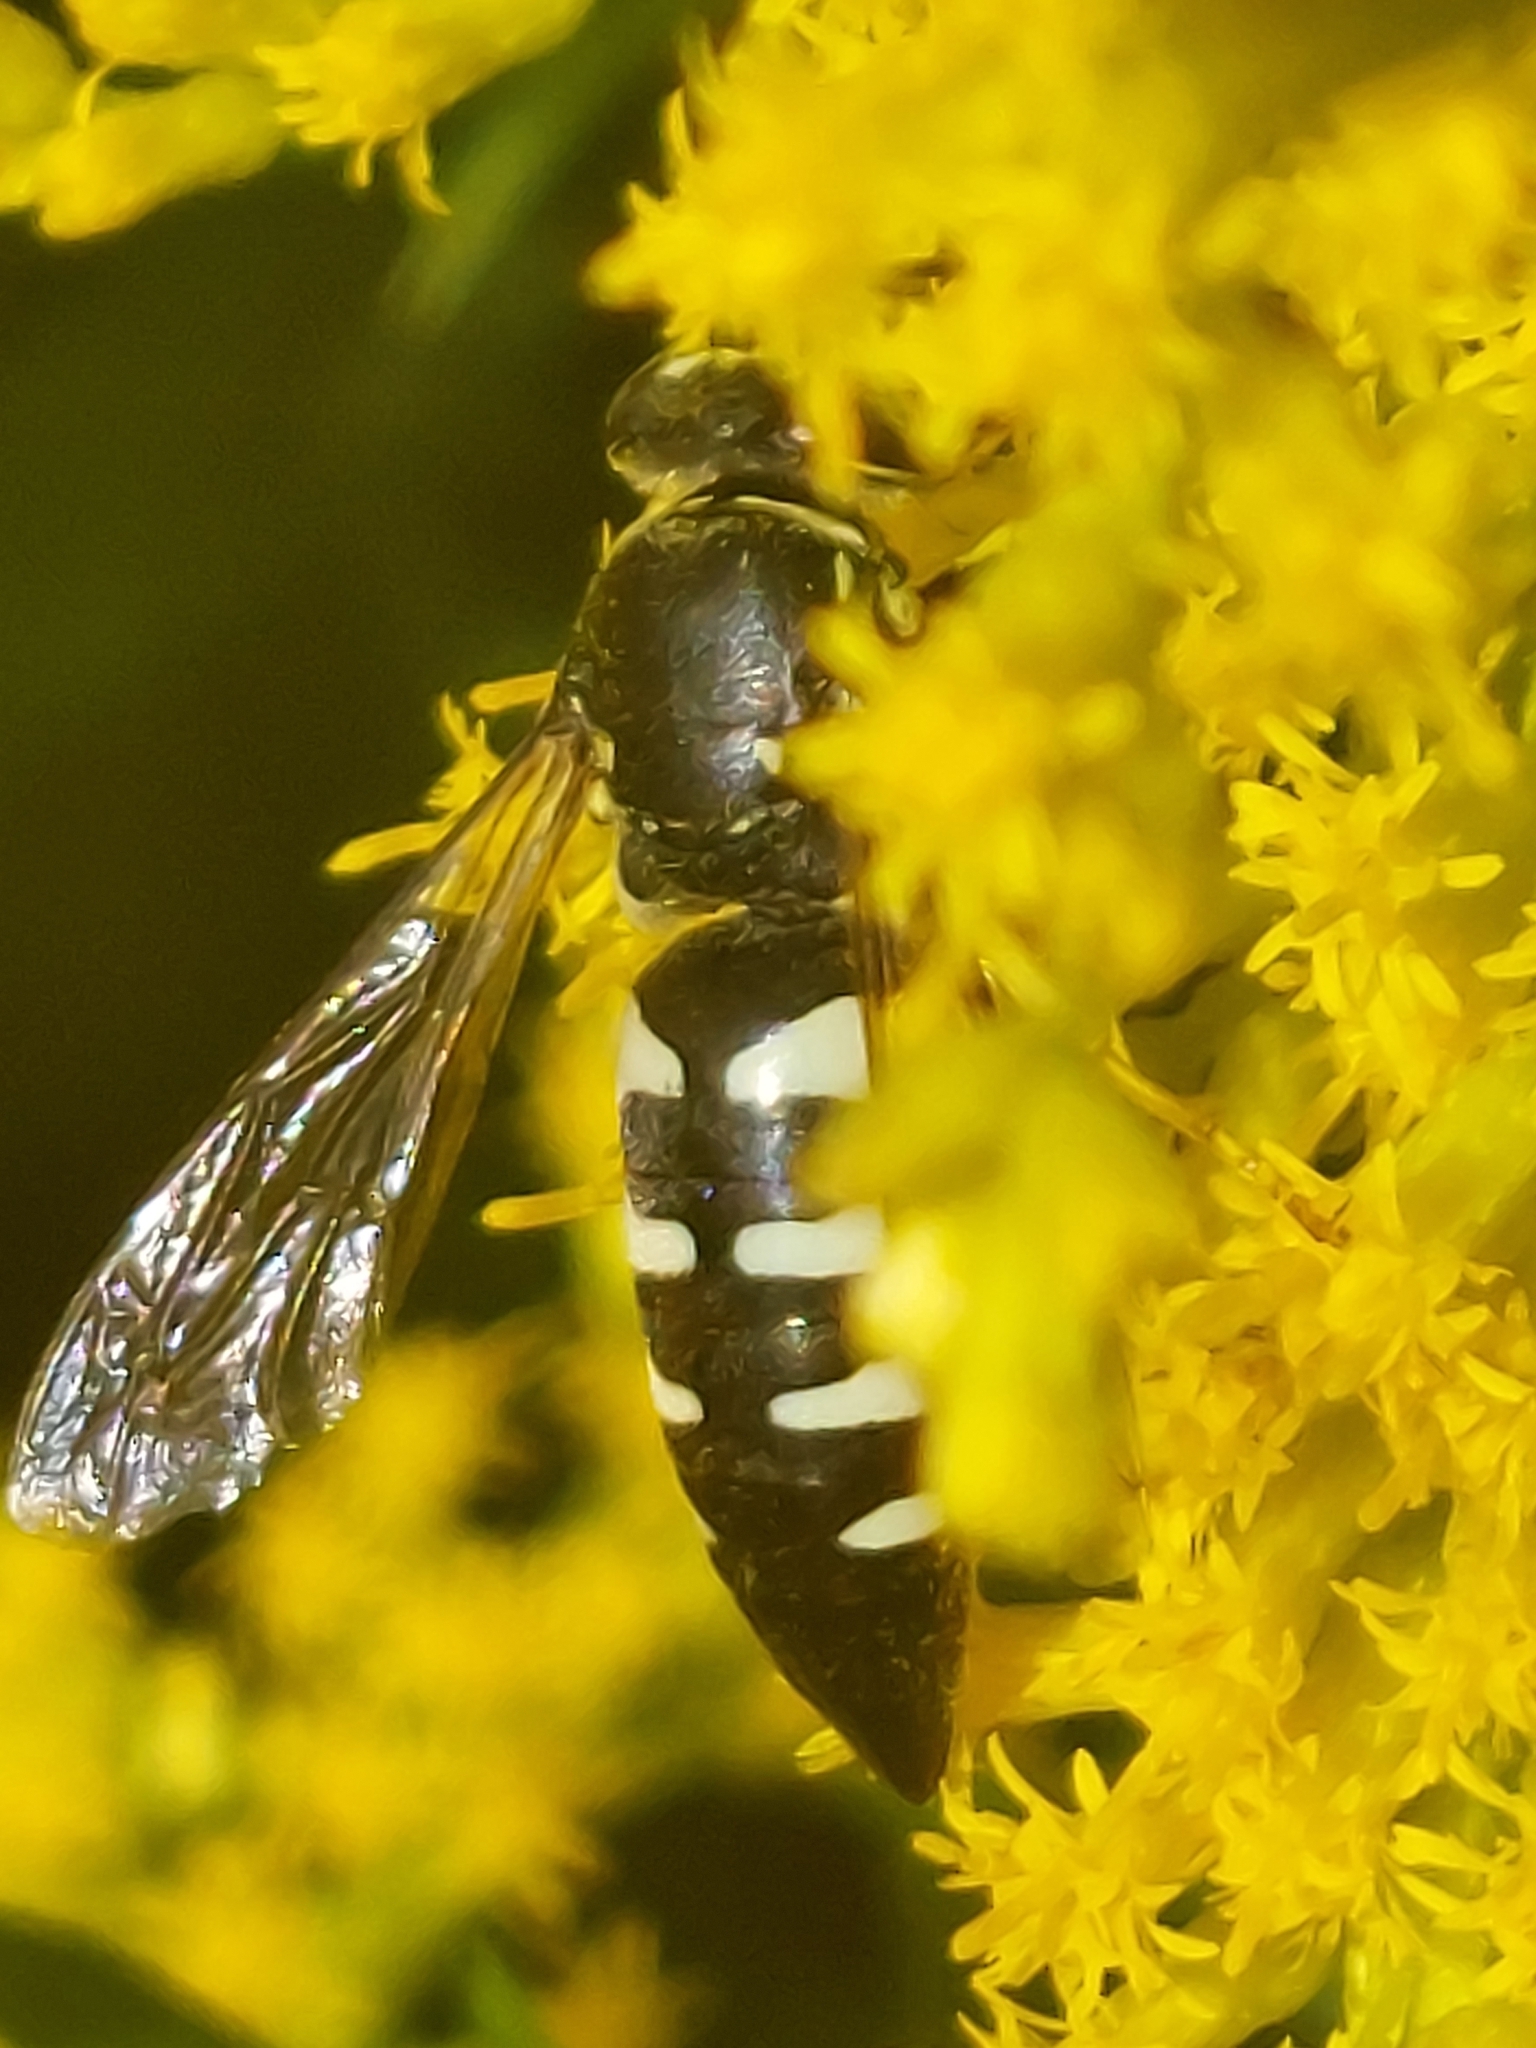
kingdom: Animalia
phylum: Arthropoda
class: Insecta
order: Hymenoptera
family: Crabronidae
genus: Bicyrtes
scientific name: Bicyrtes quadrifasciatus
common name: Four-banded stink bug hunter wasp
